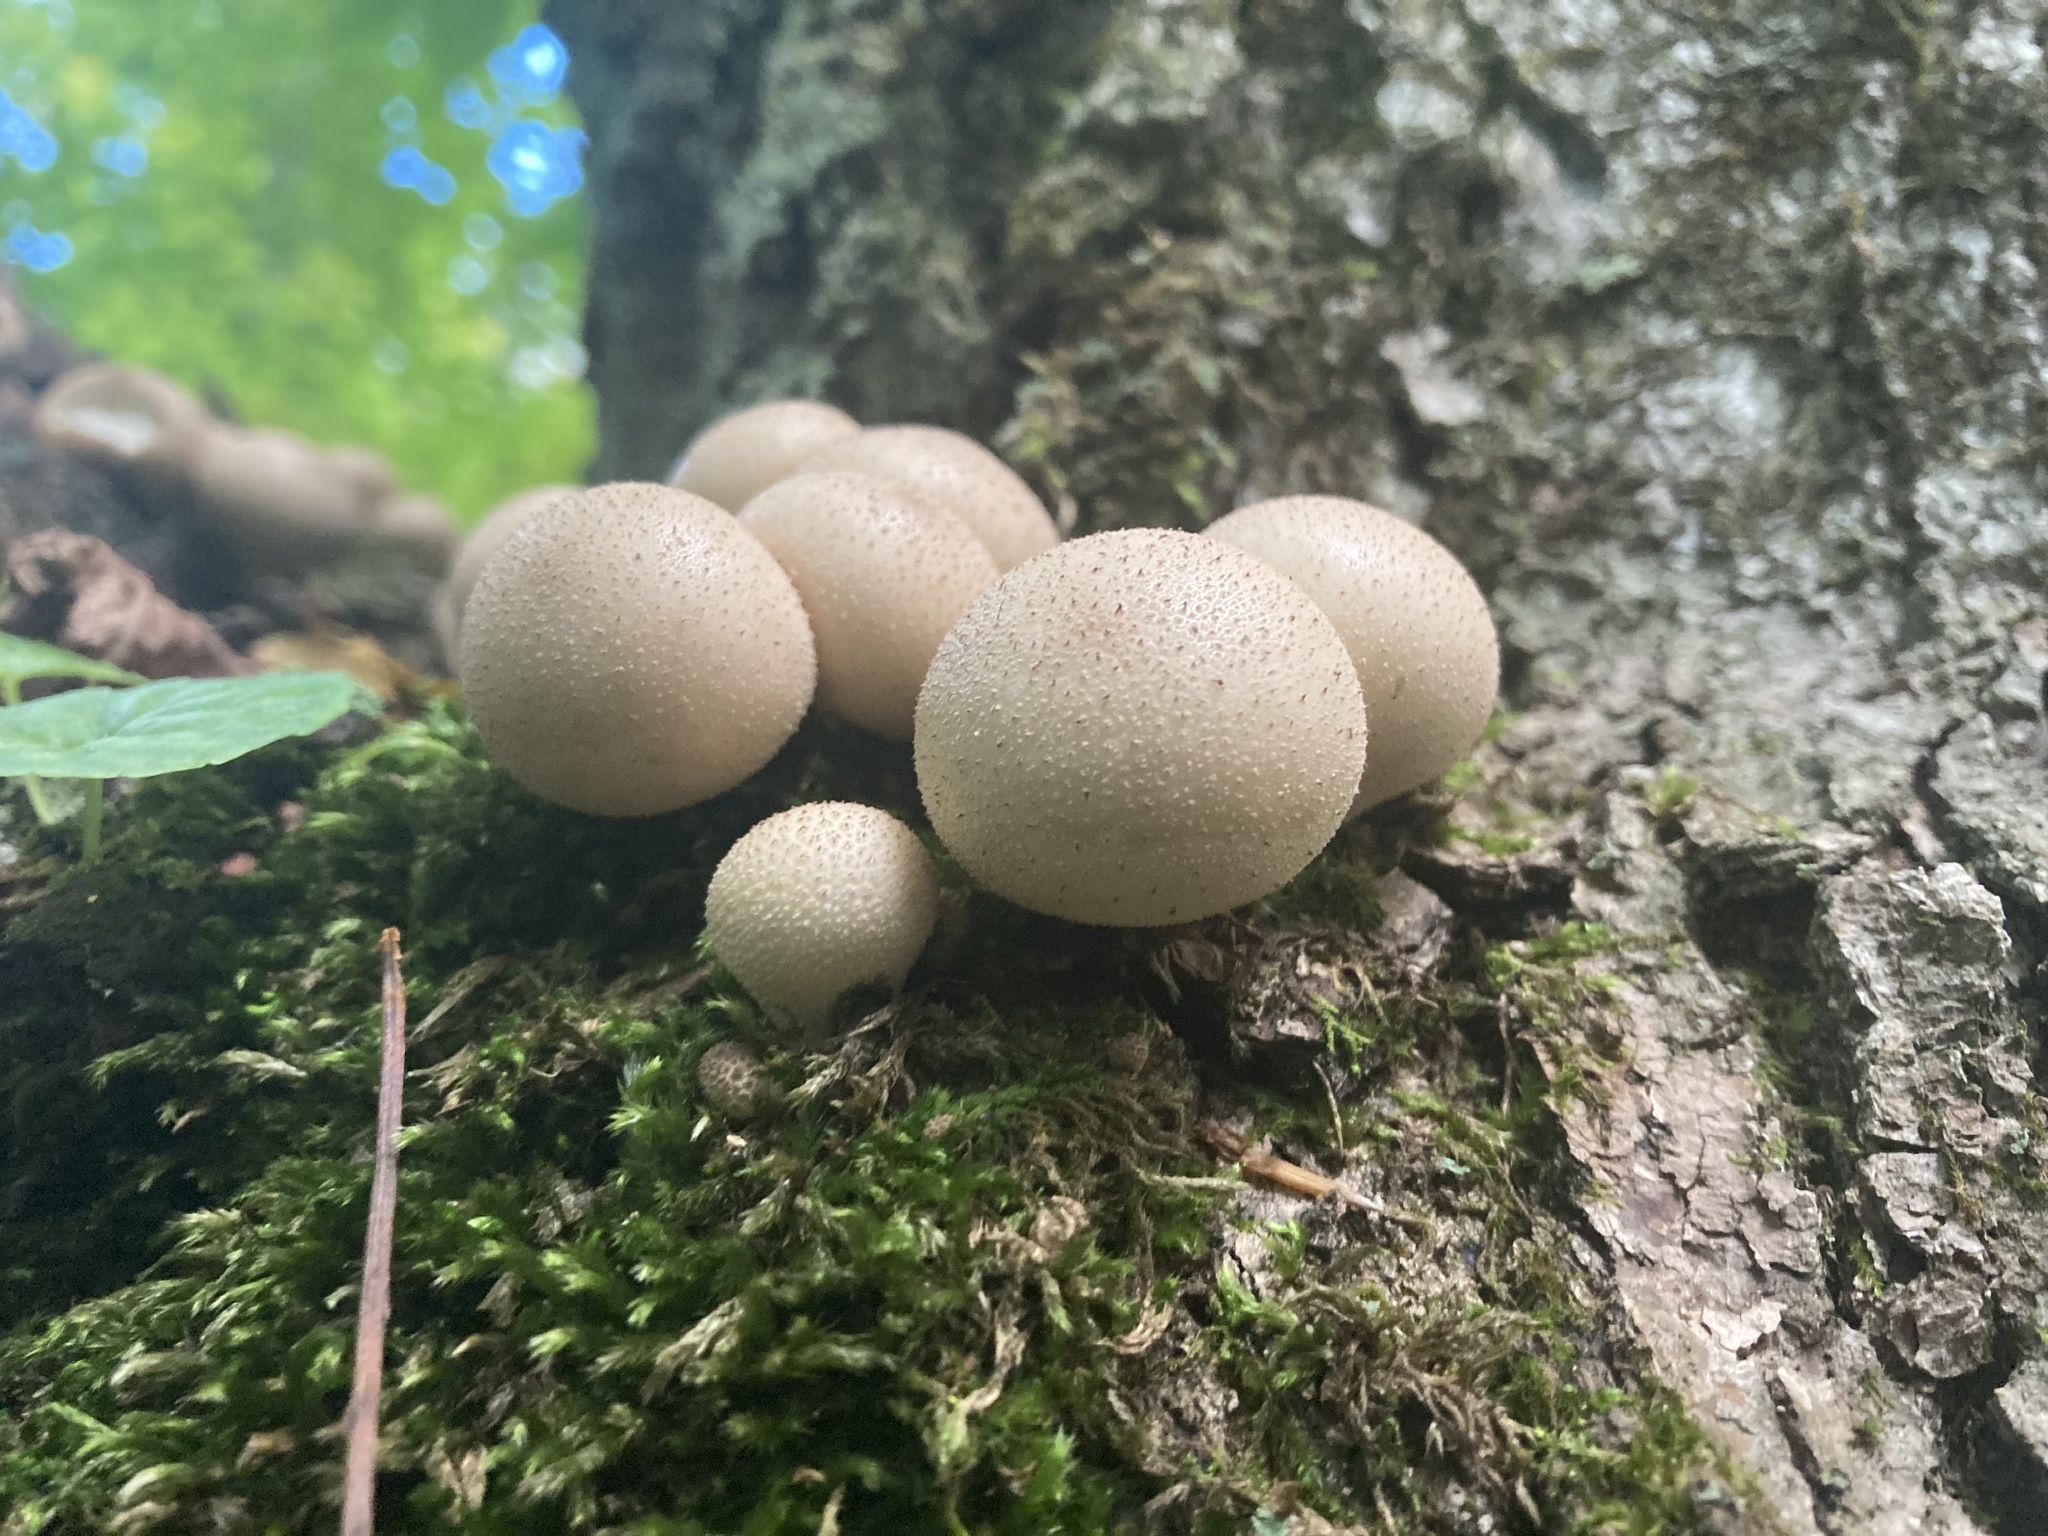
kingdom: Fungi
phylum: Basidiomycota
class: Agaricomycetes
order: Agaricales
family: Lycoperdaceae
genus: Apioperdon
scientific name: Apioperdon pyriforme
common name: Pear-shaped puffball
